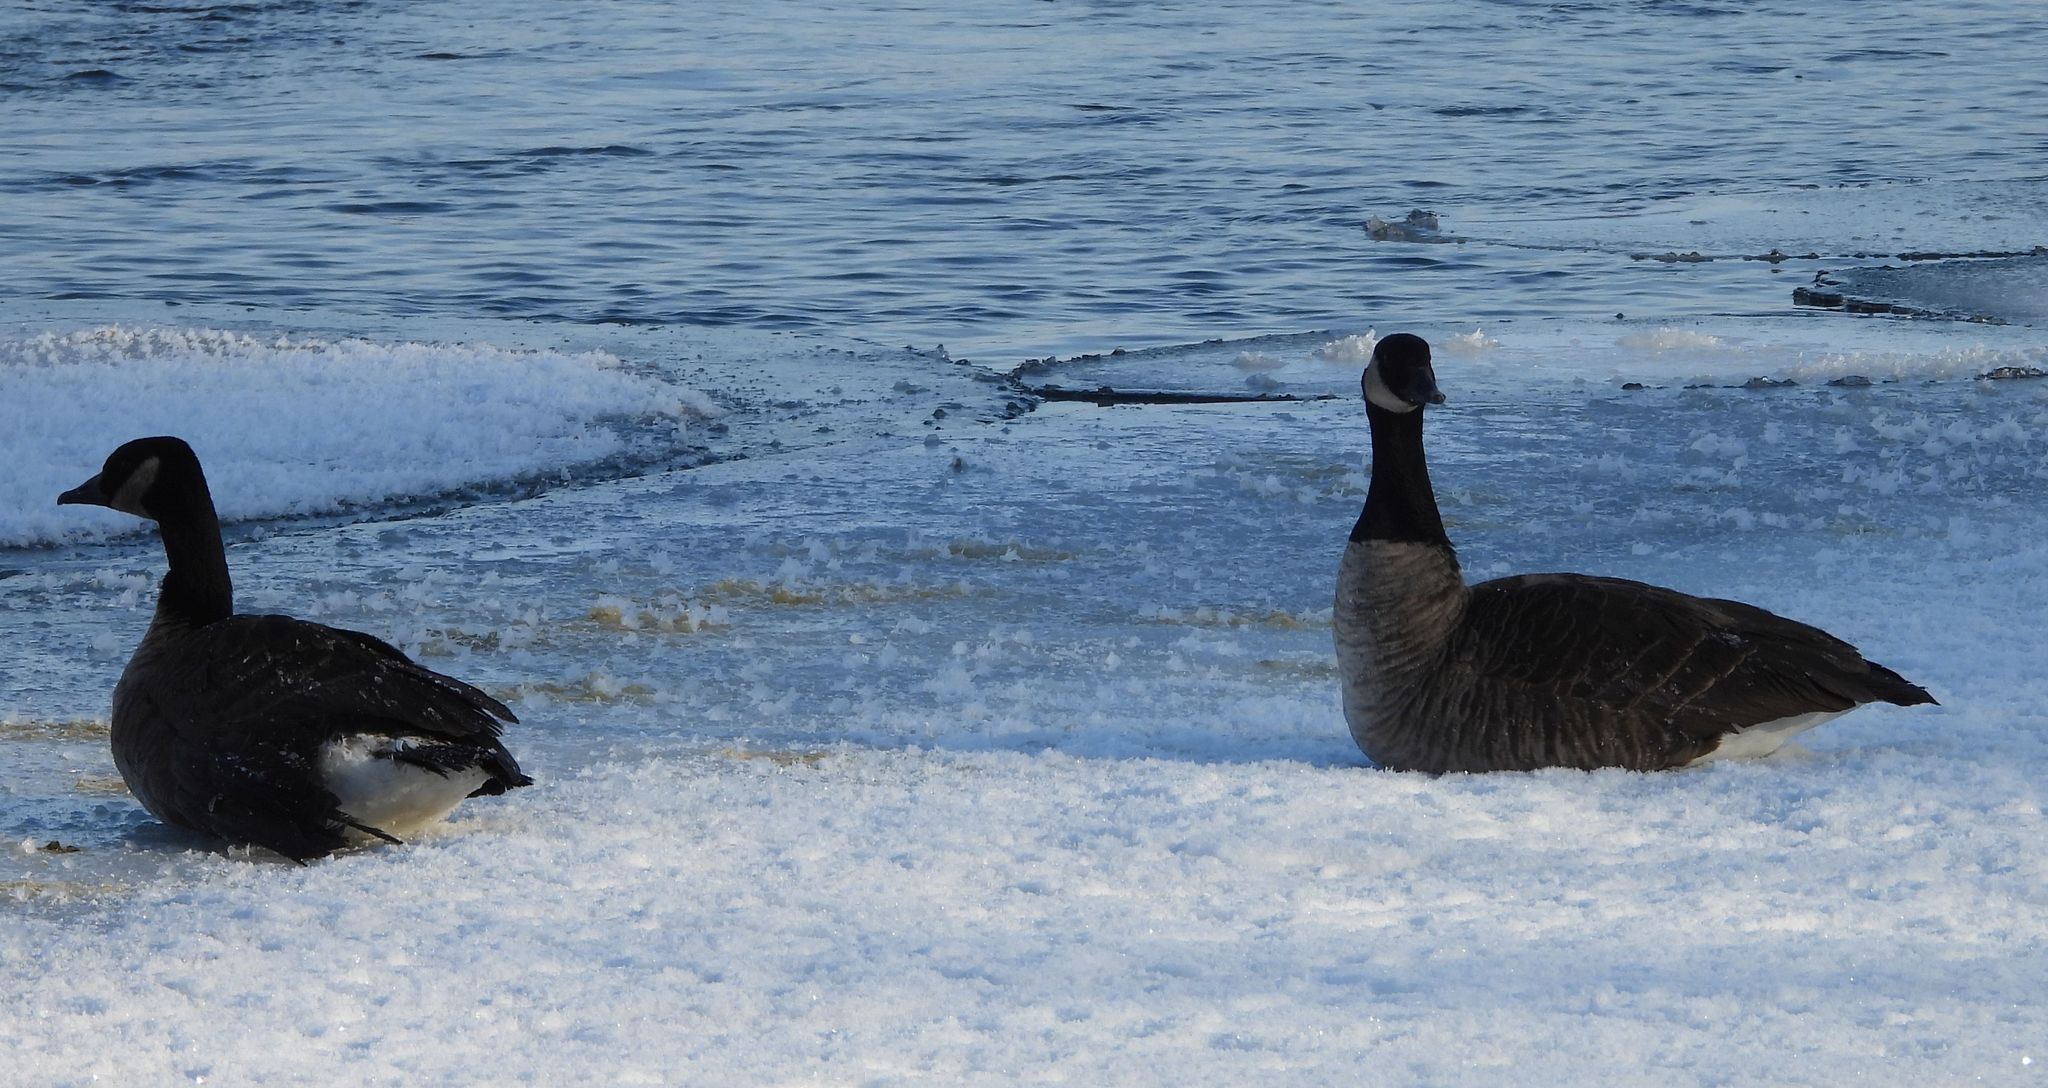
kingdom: Animalia
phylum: Chordata
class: Aves
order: Anseriformes
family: Anatidae
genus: Branta
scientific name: Branta canadensis
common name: Canada goose
